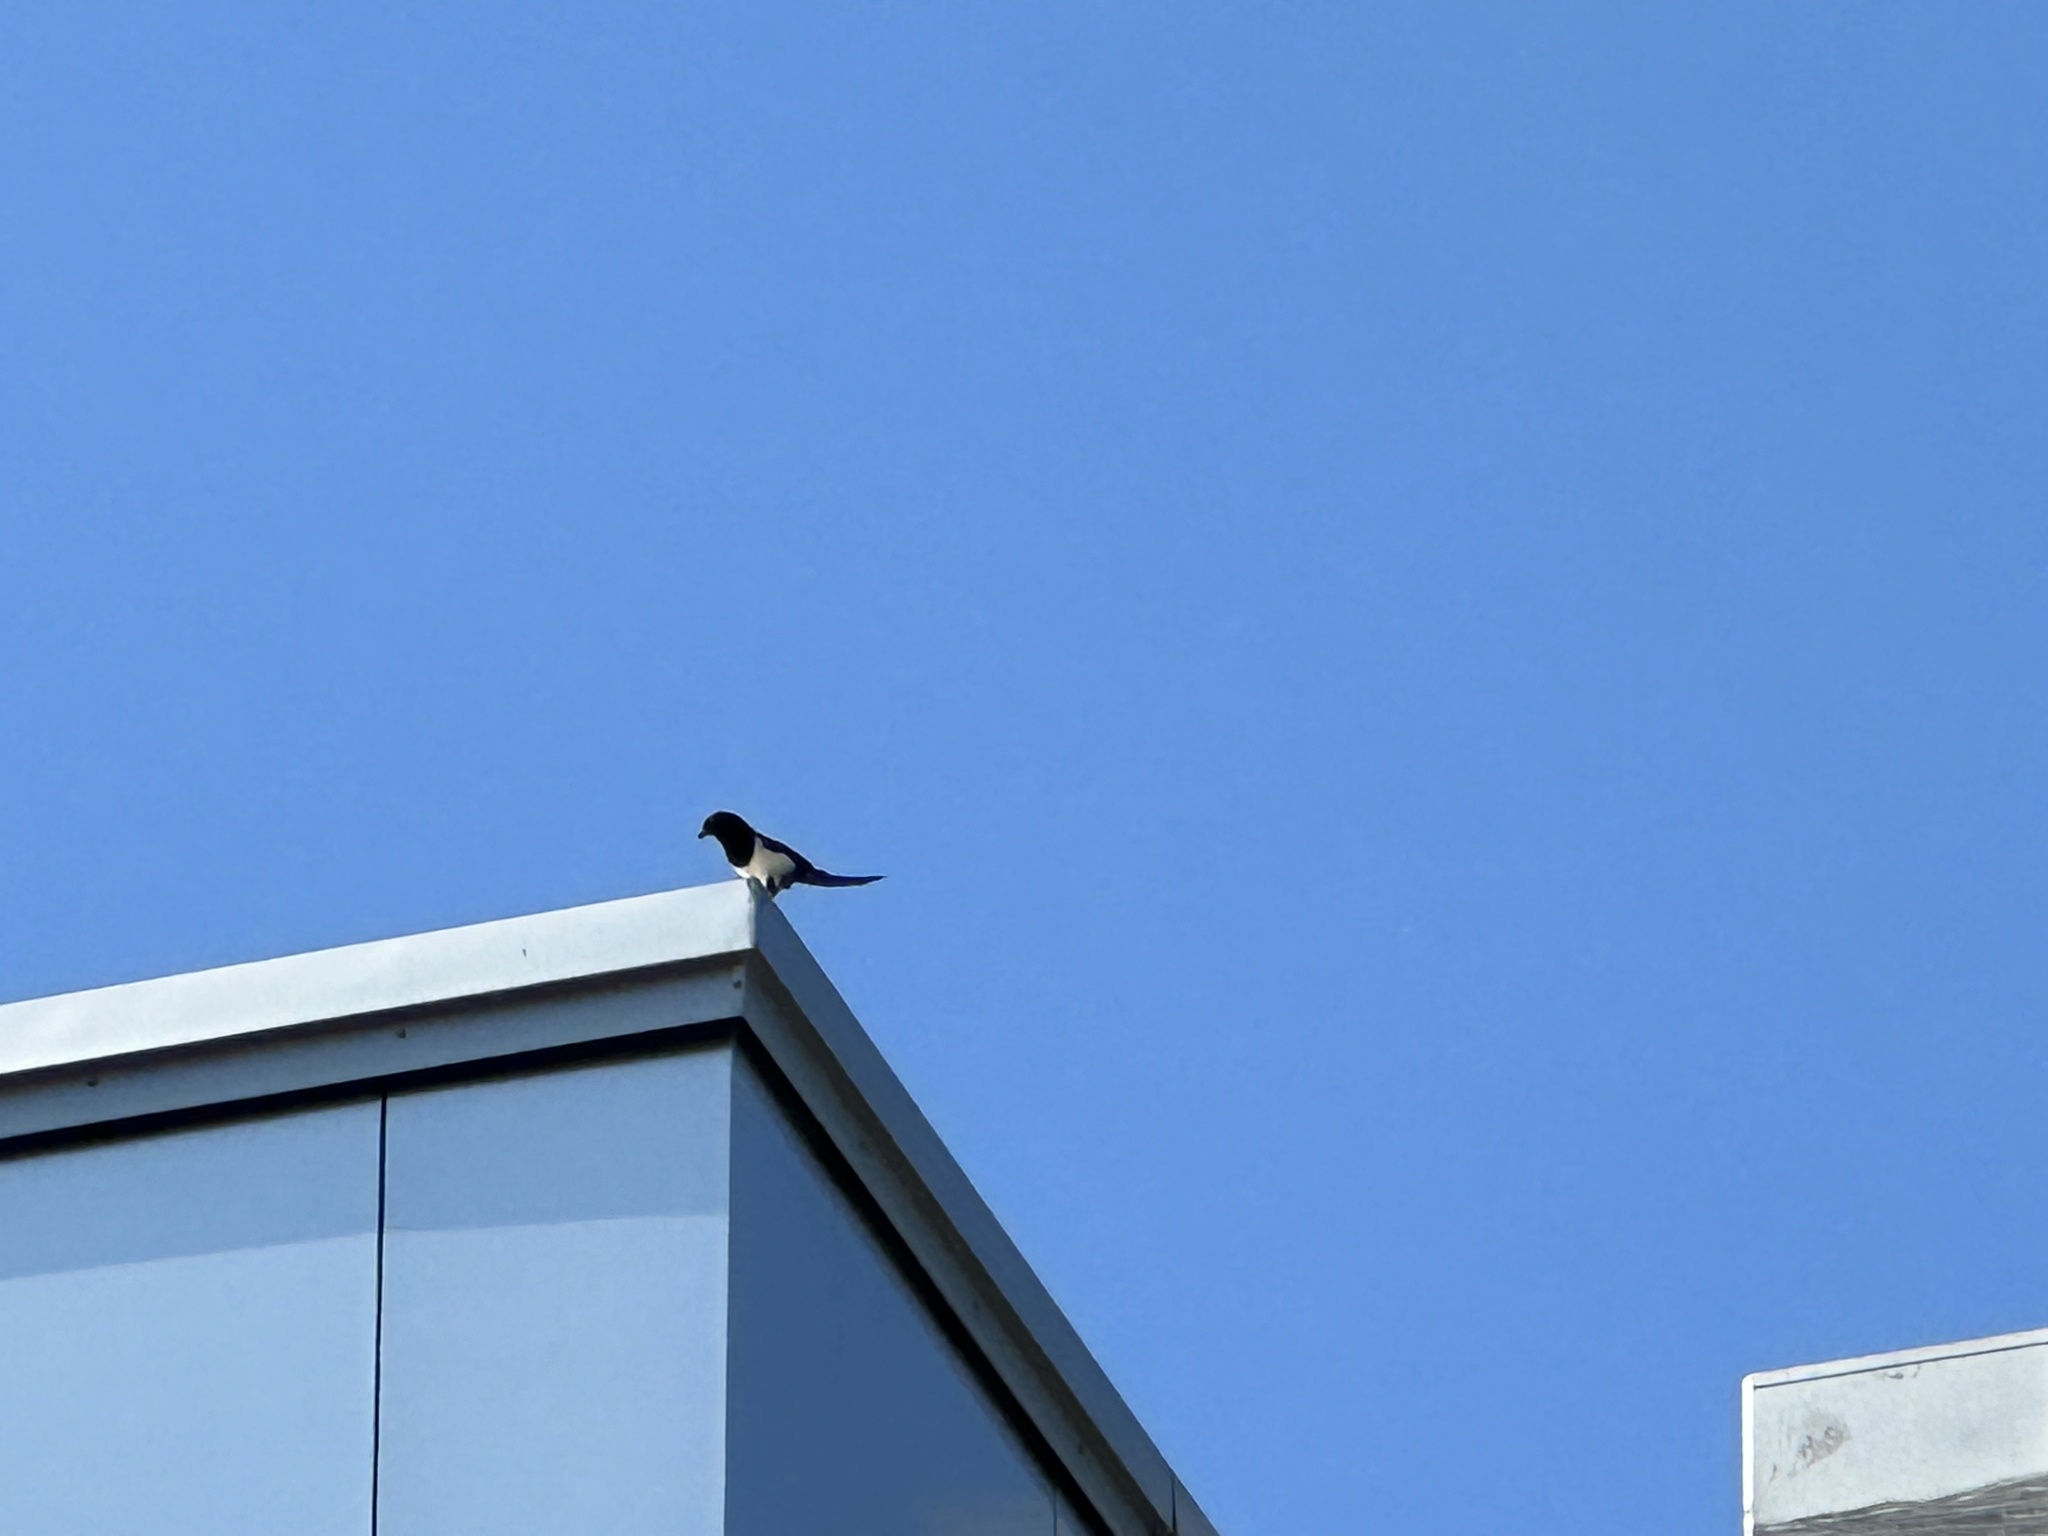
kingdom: Animalia
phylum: Chordata
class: Aves
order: Passeriformes
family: Corvidae
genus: Pica
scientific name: Pica pica
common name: Eurasian magpie
